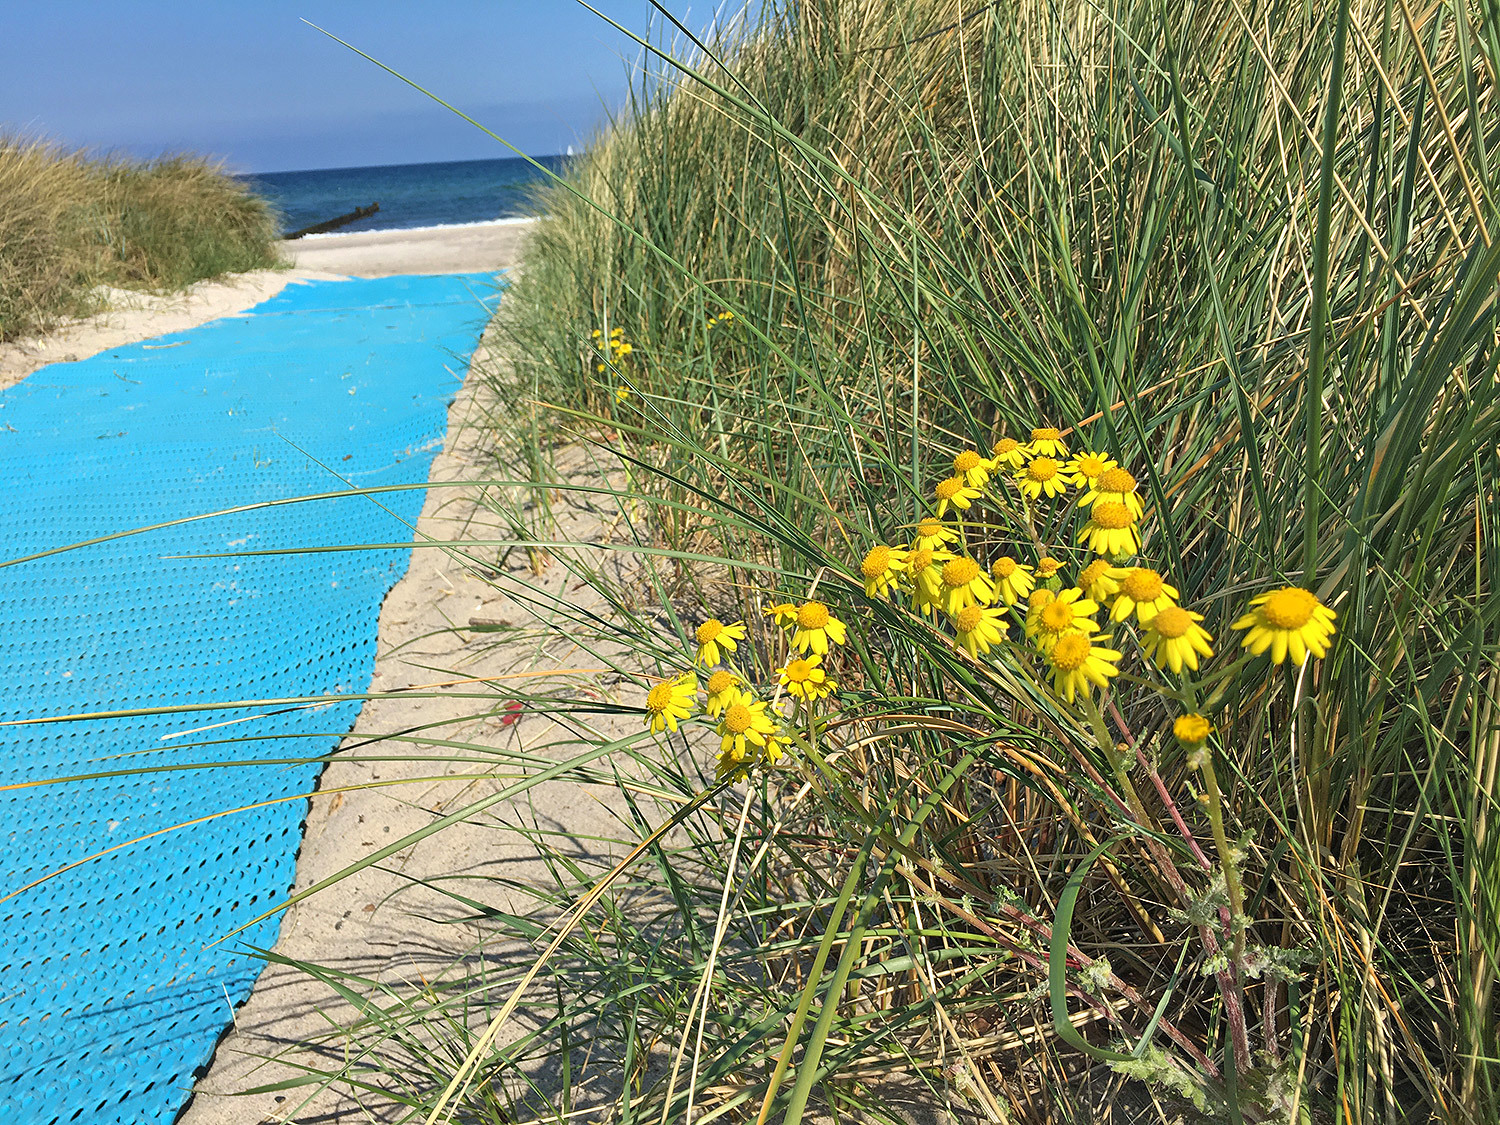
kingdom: Plantae
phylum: Tracheophyta
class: Magnoliopsida
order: Asterales
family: Asteraceae
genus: Senecio
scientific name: Senecio vernalis
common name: Eastern groundsel
